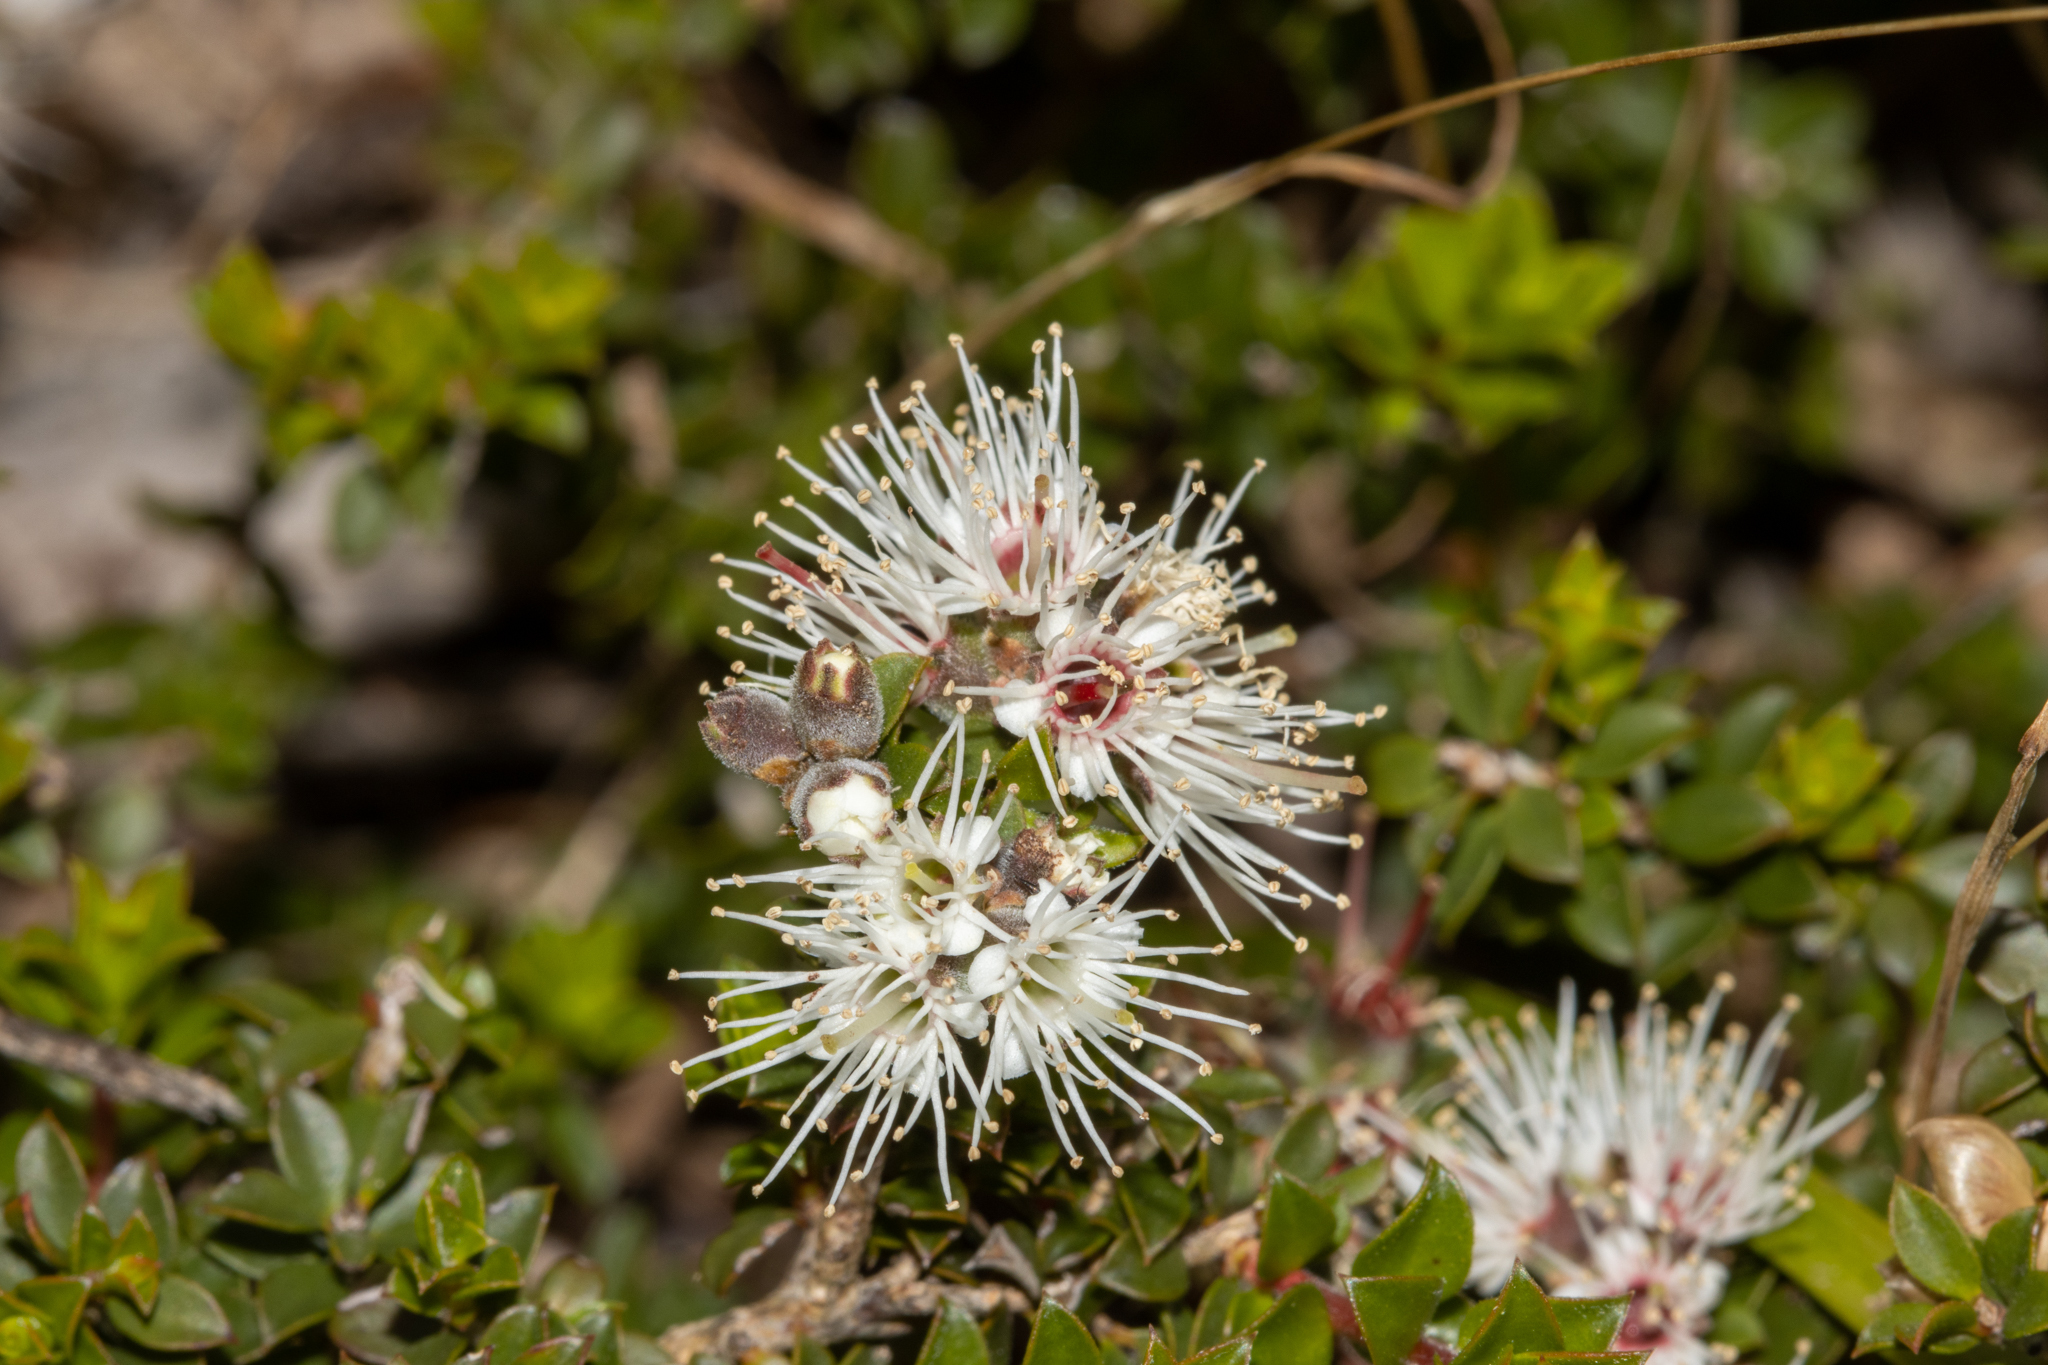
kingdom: Plantae
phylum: Tracheophyta
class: Magnoliopsida
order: Myrtales
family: Myrtaceae
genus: Kunzea
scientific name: Kunzea pomifera
